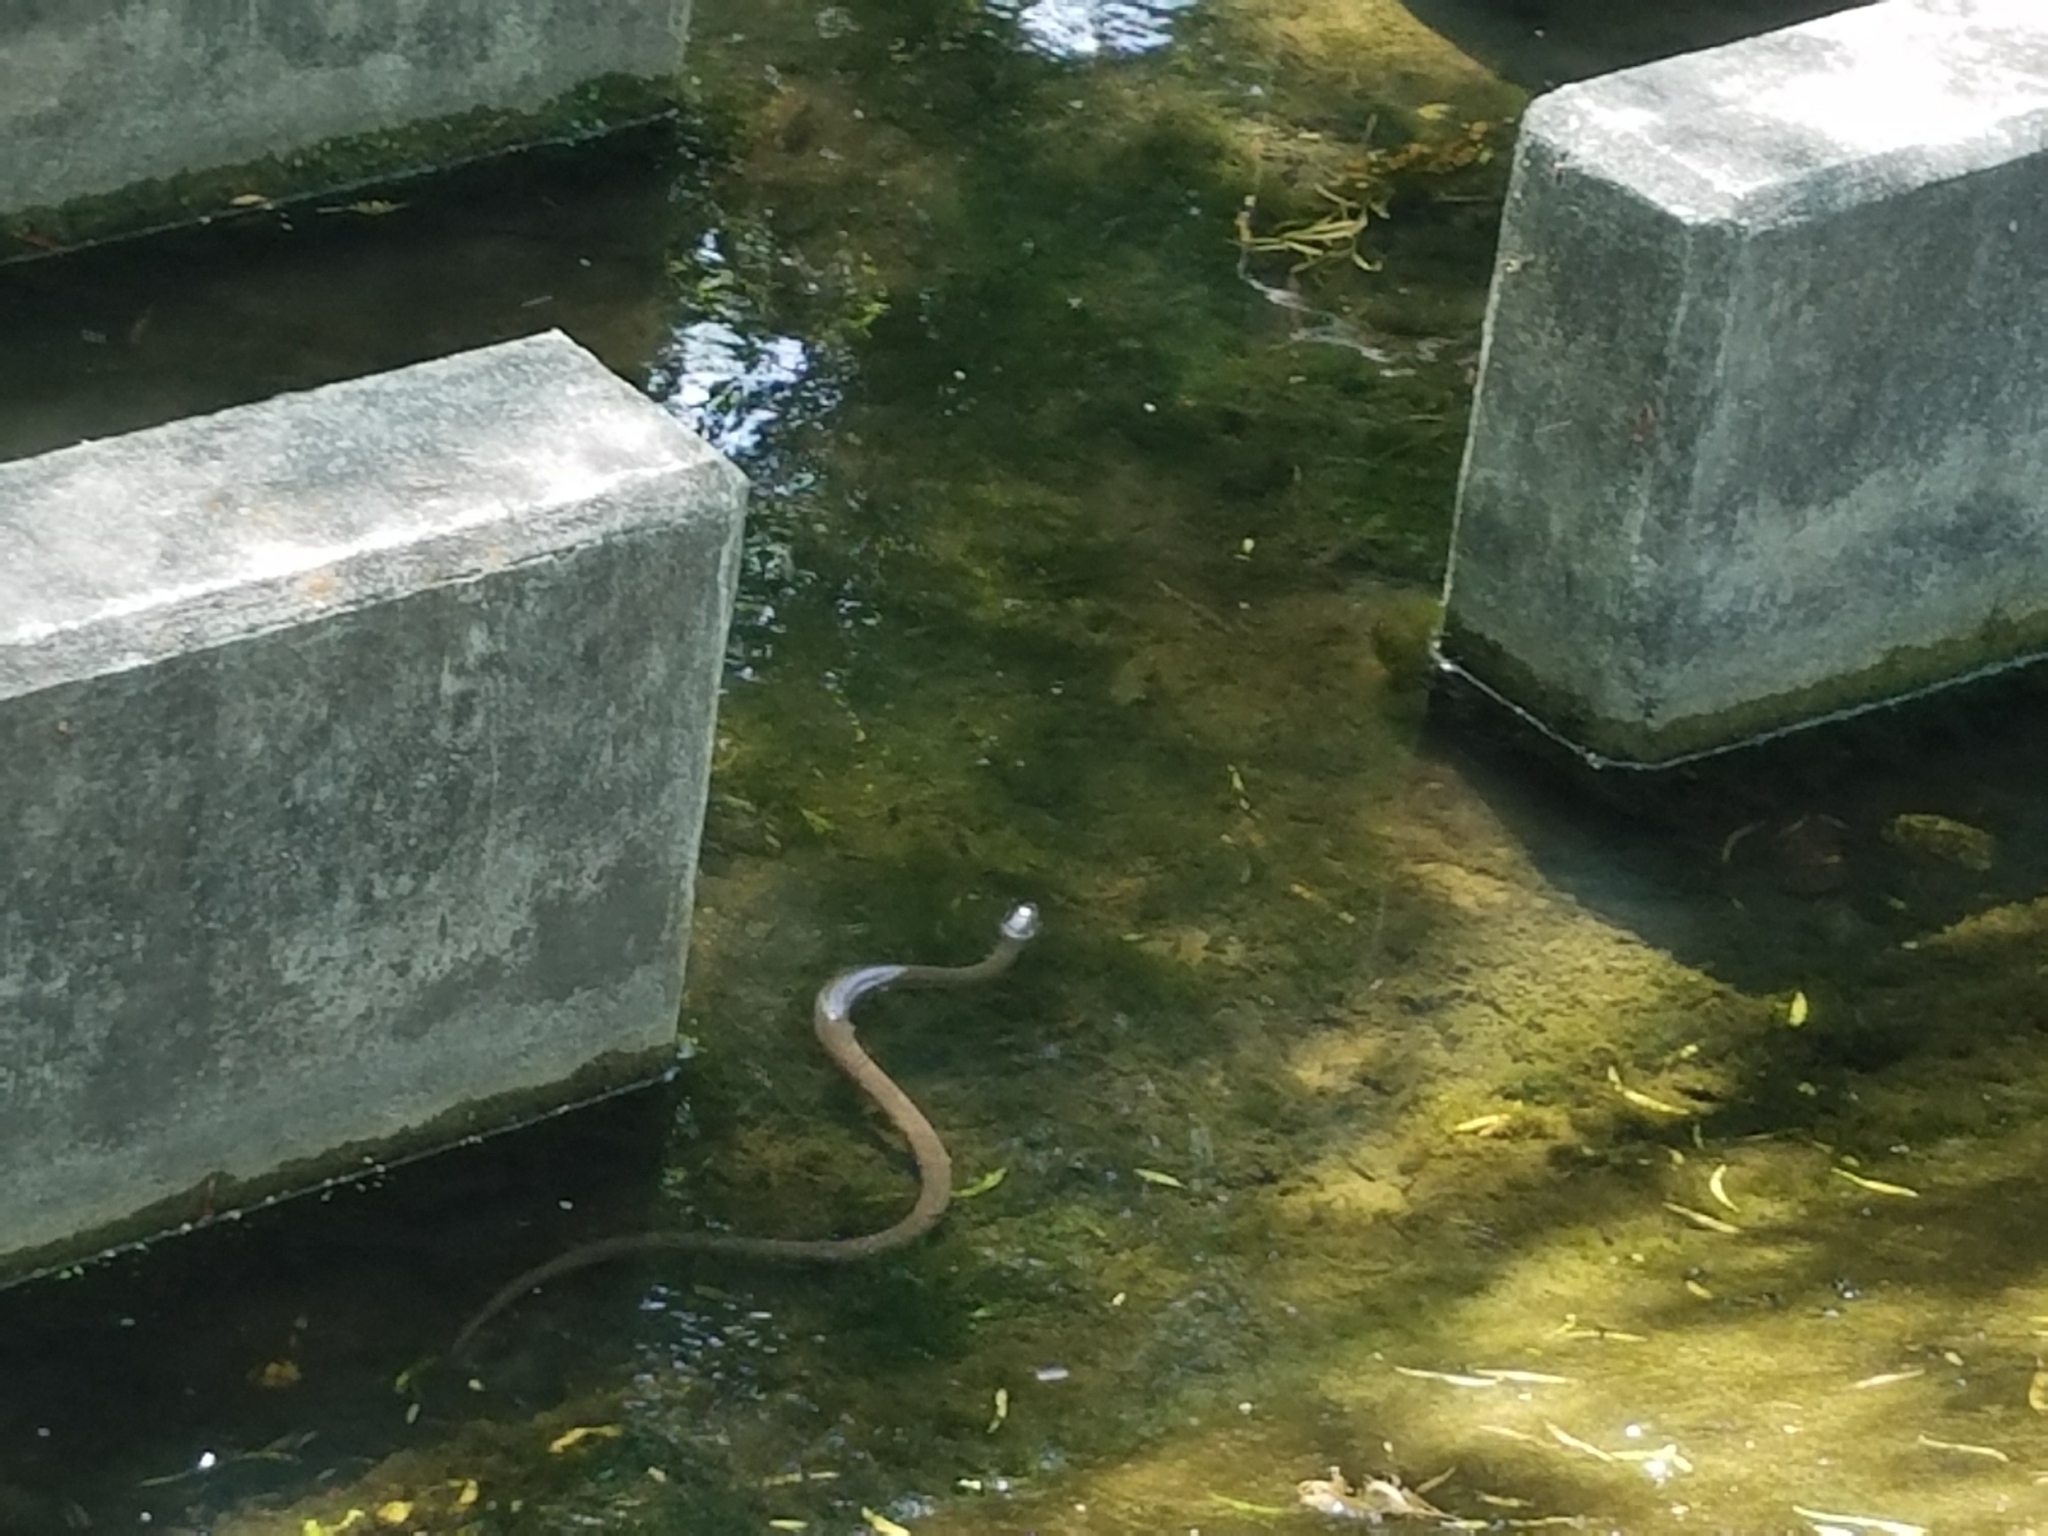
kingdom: Animalia
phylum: Chordata
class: Squamata
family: Colubridae
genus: Nerodia
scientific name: Nerodia erythrogaster
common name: Plainbelly water snake
